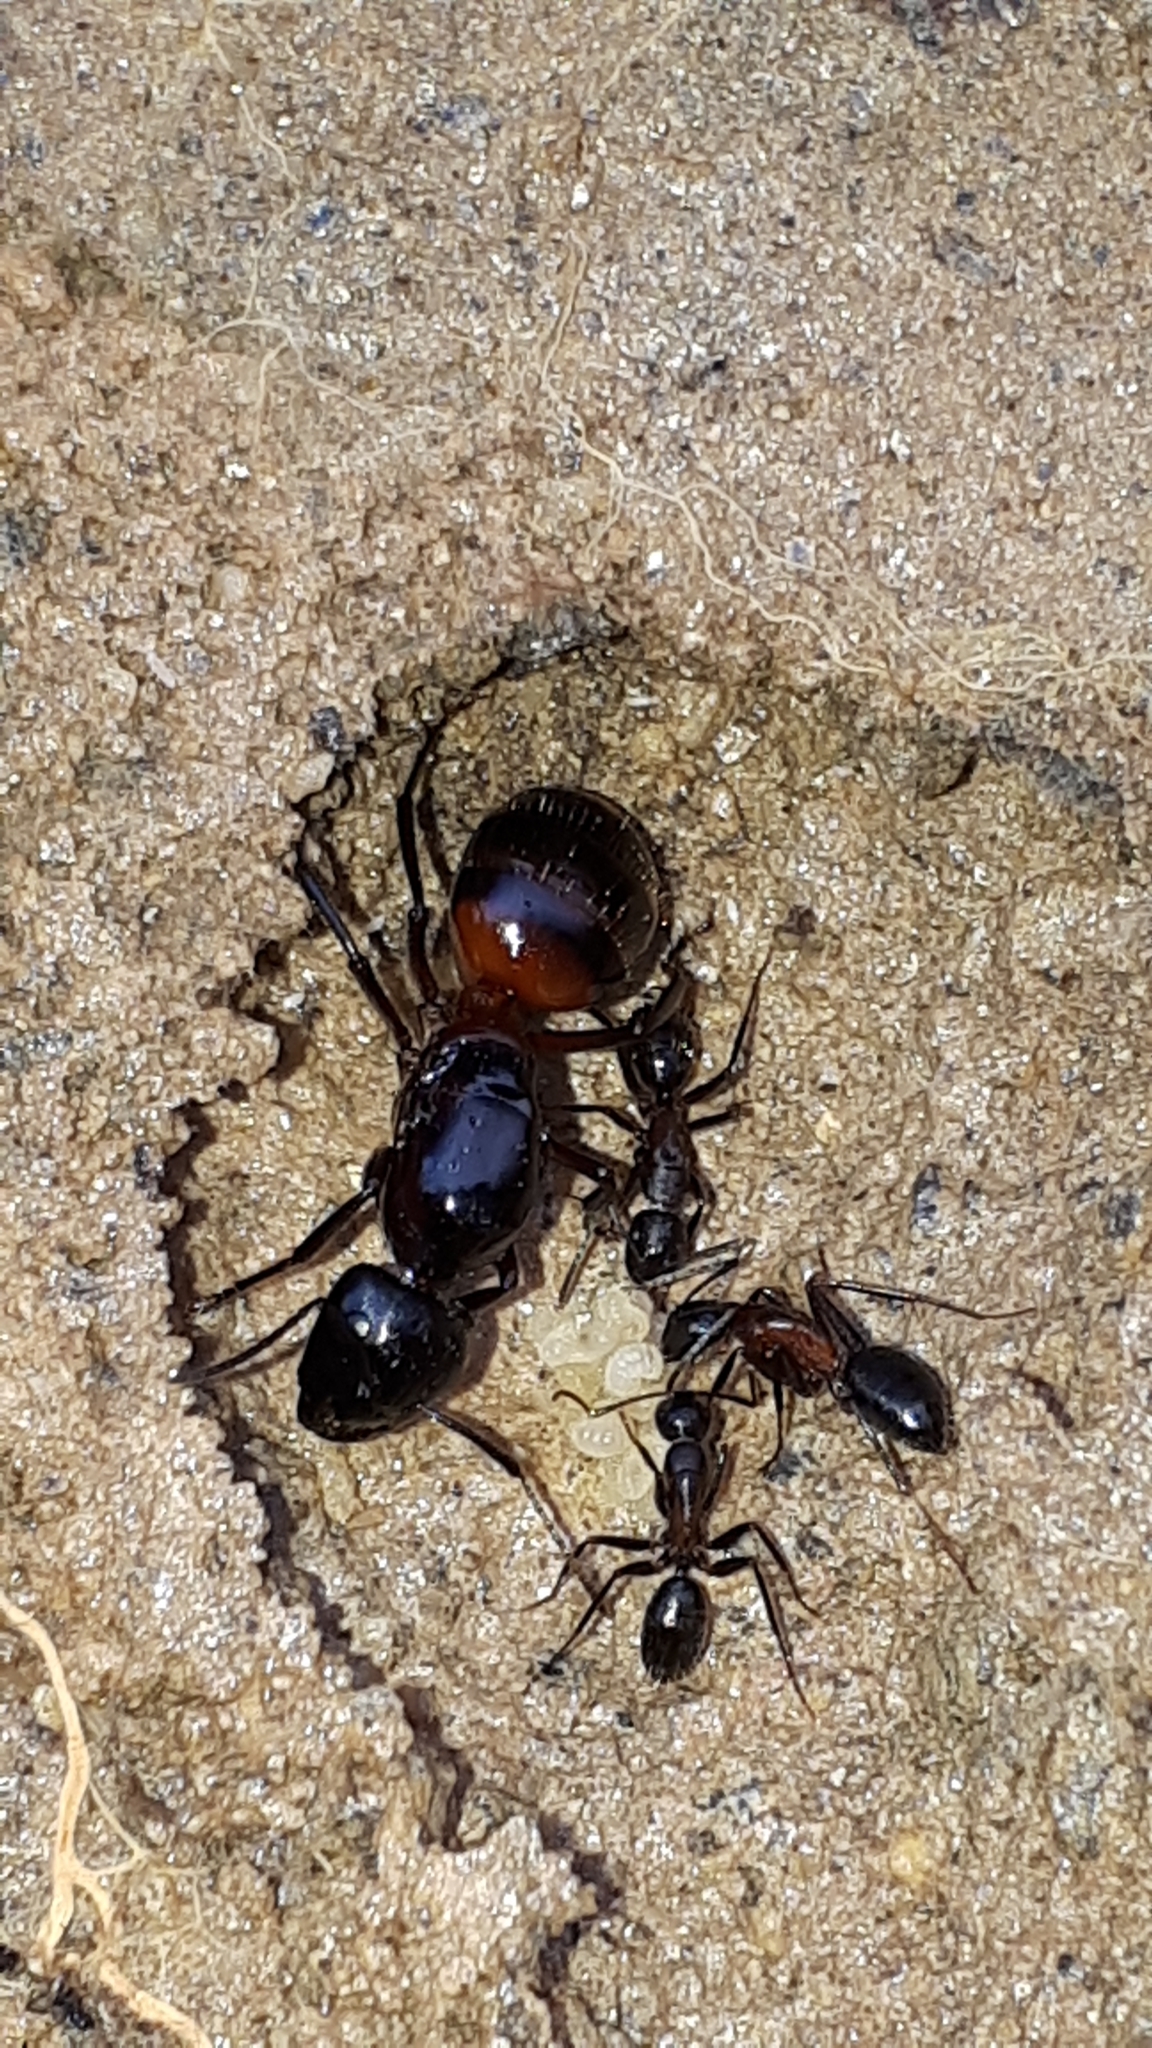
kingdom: Animalia
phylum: Arthropoda
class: Insecta
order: Hymenoptera
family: Formicidae
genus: Camponotus
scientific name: Camponotus ligniperdus
